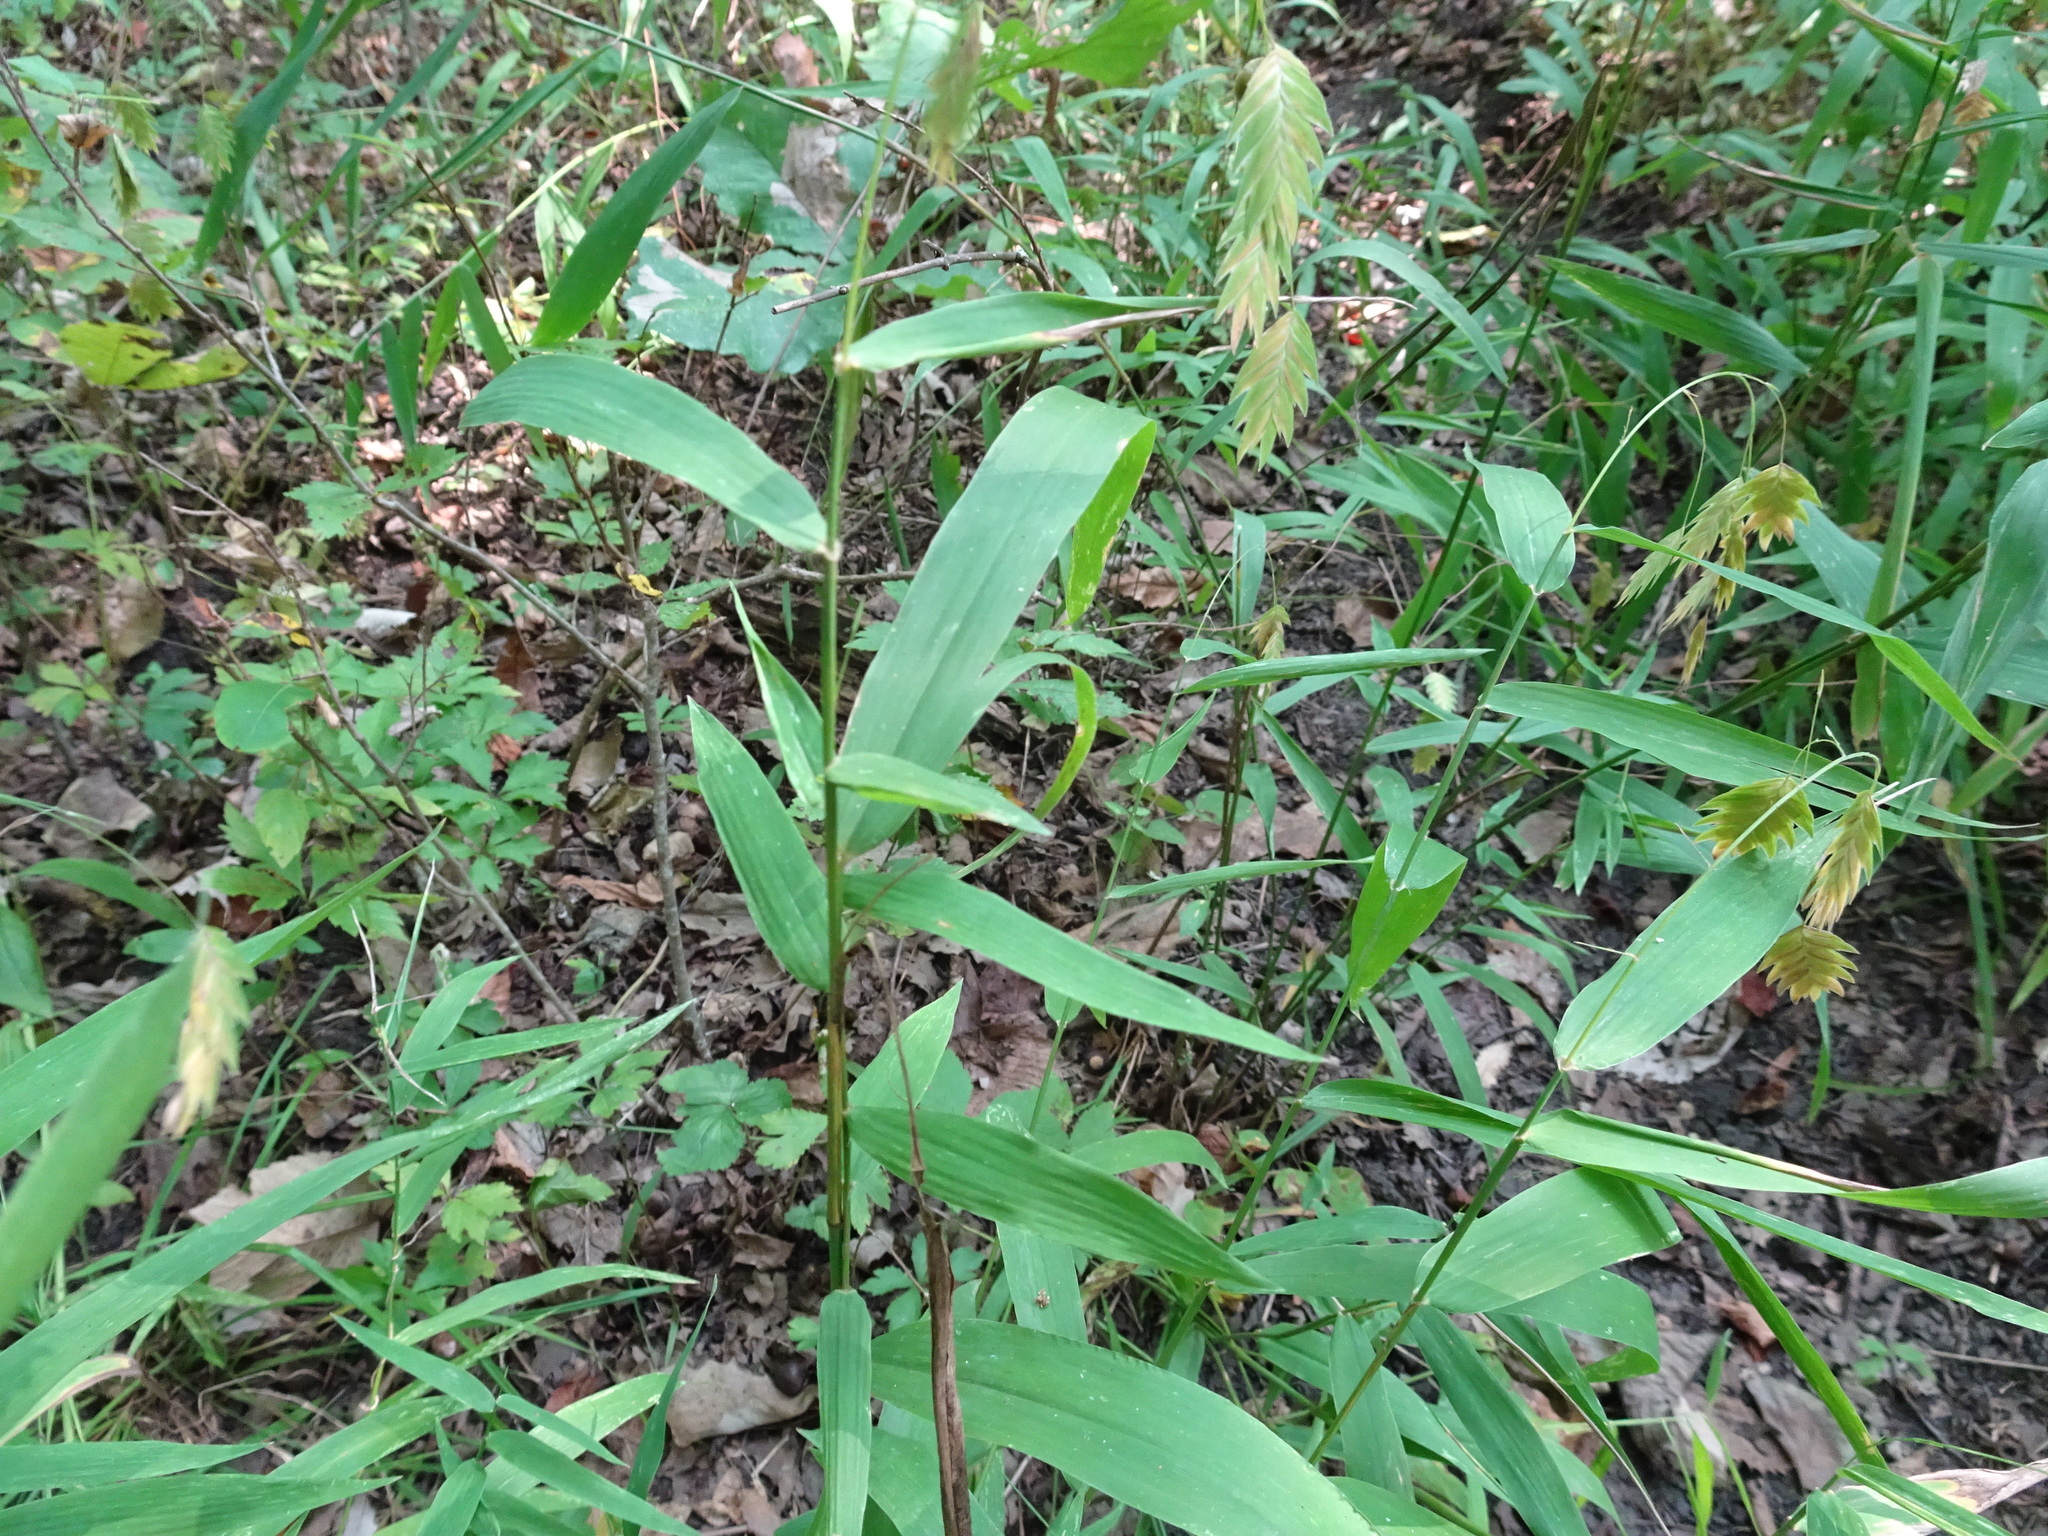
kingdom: Plantae
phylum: Tracheophyta
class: Liliopsida
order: Poales
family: Poaceae
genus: Chasmanthium
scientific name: Chasmanthium latifolium
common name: Broad-leaved chasmanthium
